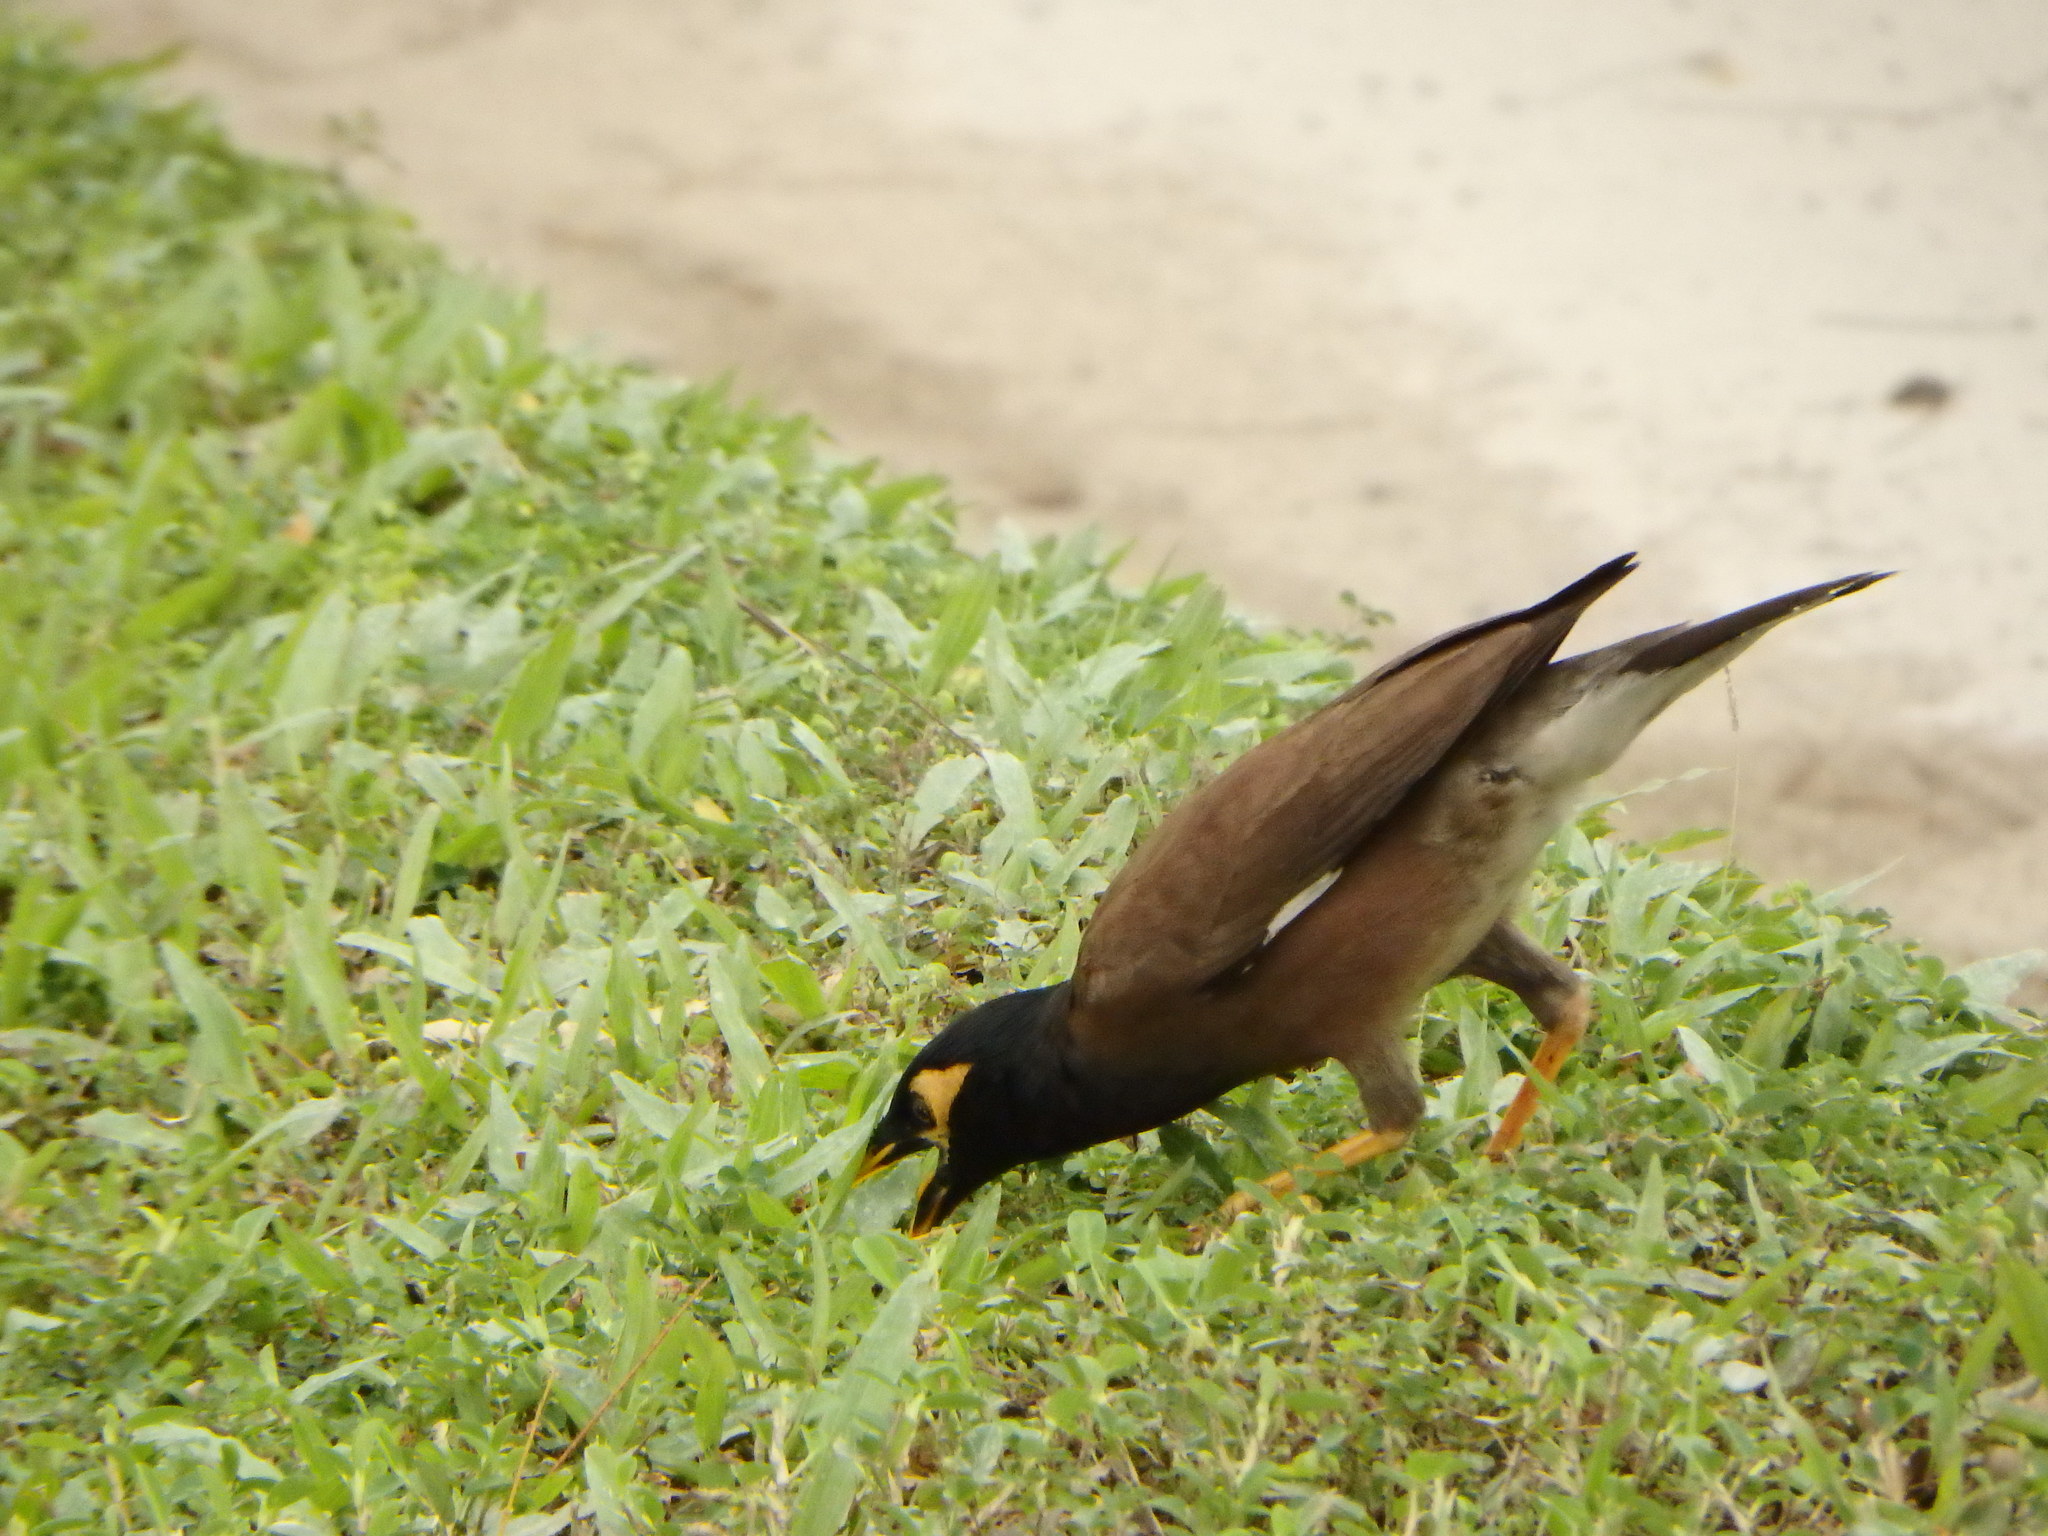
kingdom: Animalia
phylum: Chordata
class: Aves
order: Passeriformes
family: Sturnidae
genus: Acridotheres
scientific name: Acridotheres tristis
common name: Common myna
